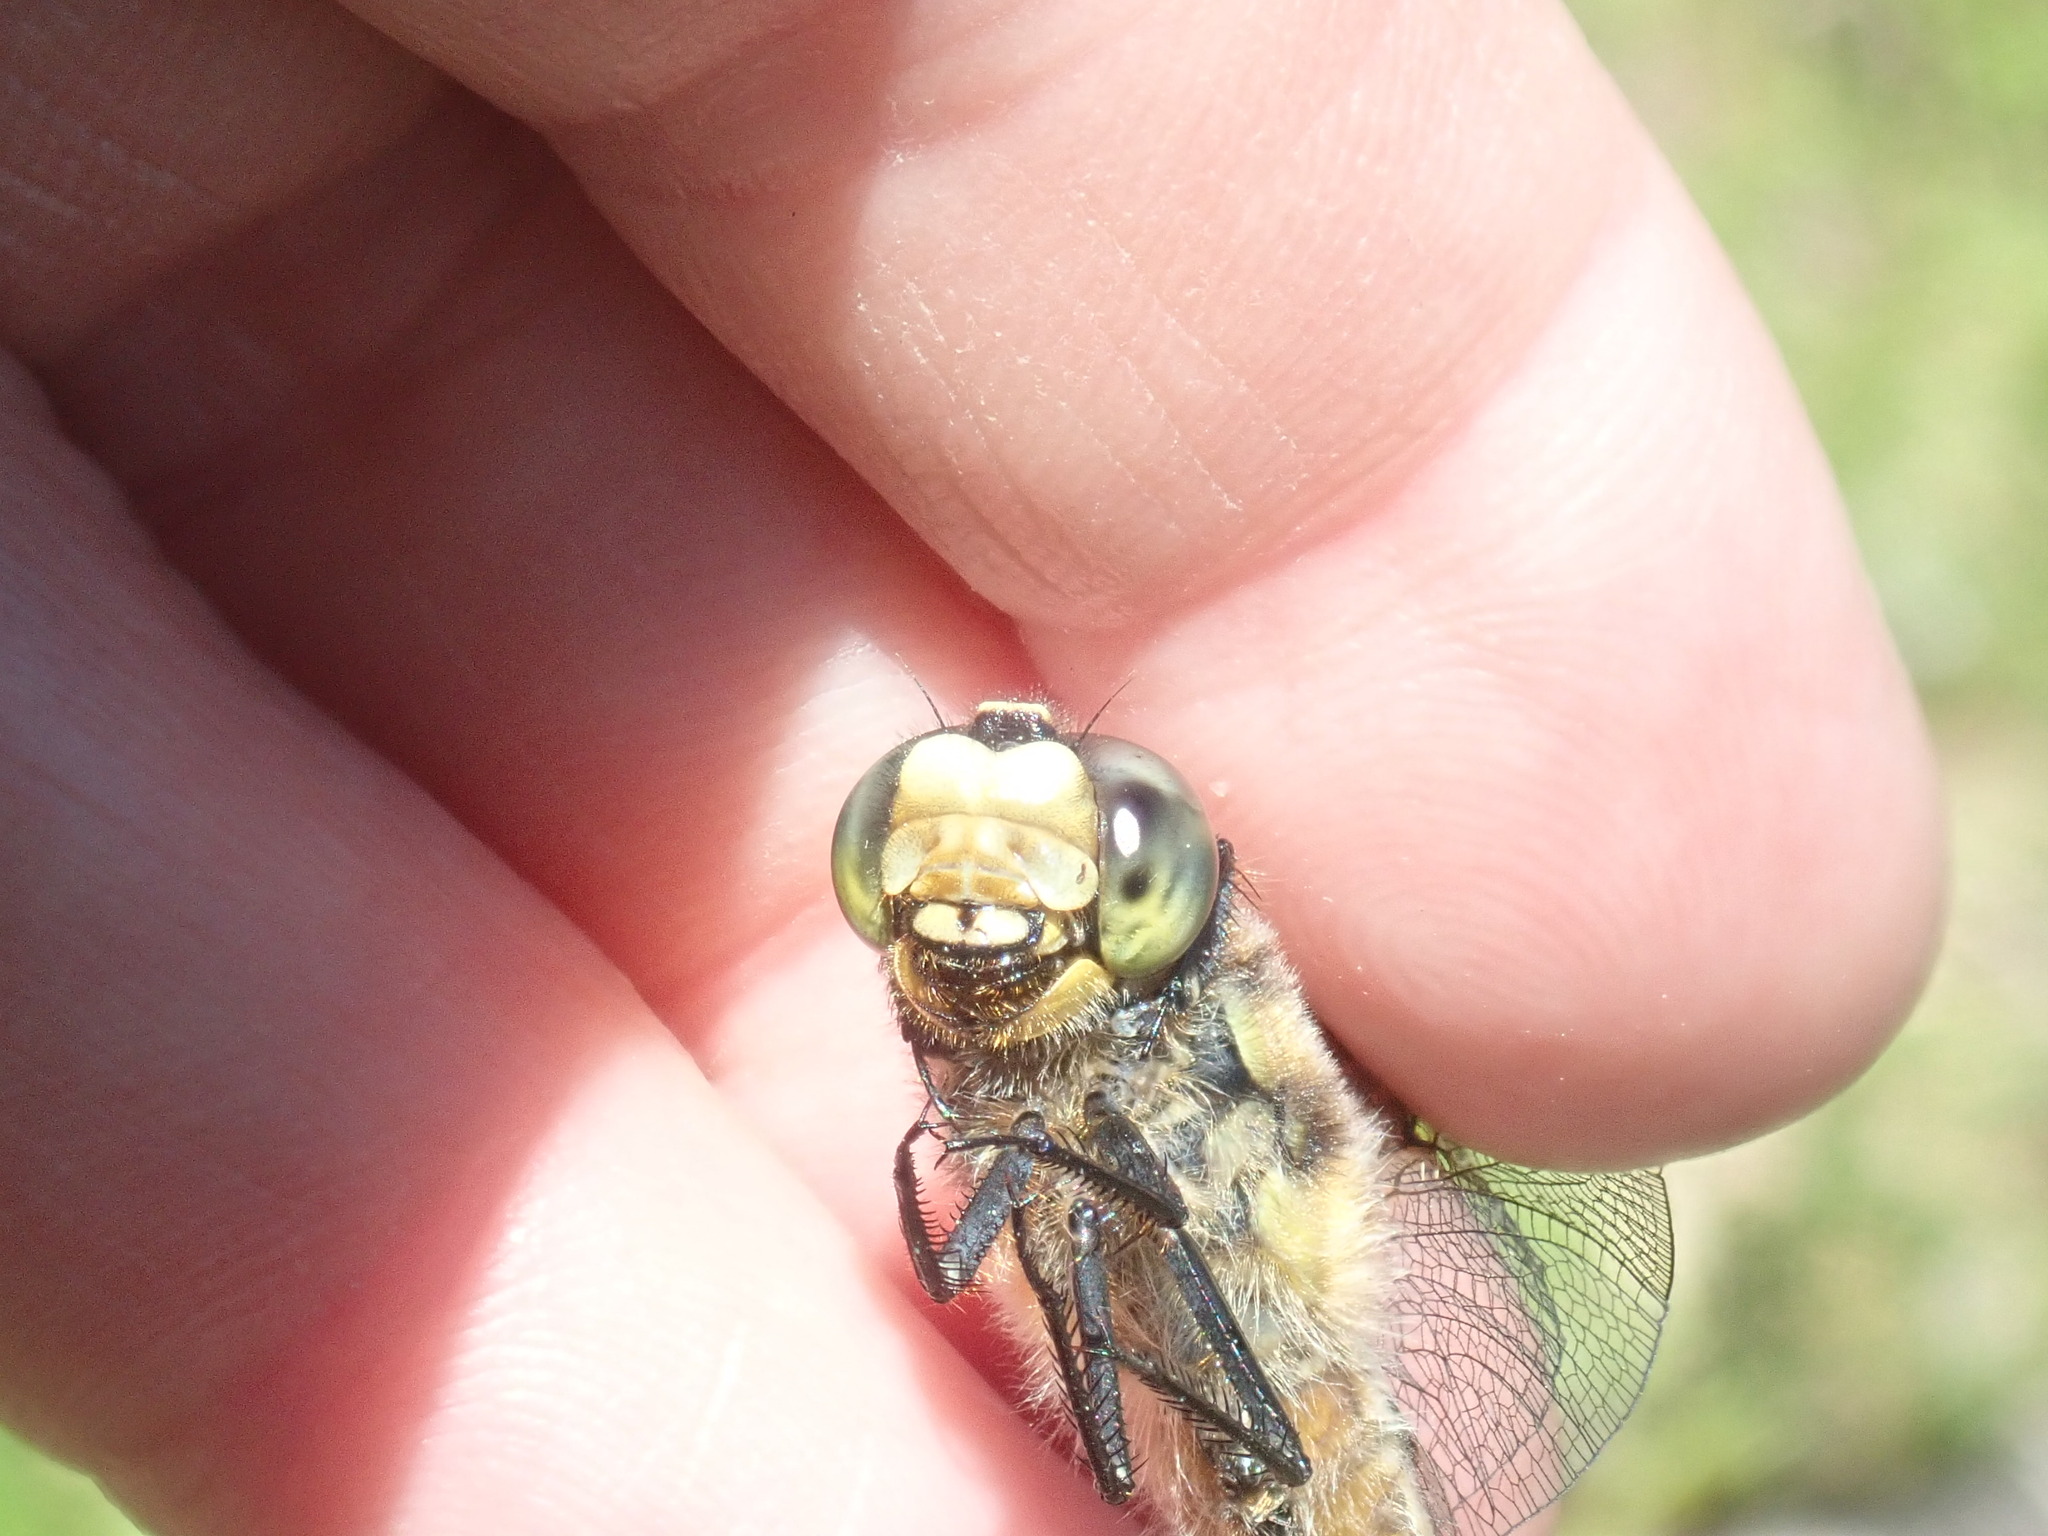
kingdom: Animalia
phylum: Arthropoda
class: Insecta
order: Odonata
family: Libellulidae
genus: Libellula
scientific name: Libellula quadrimaculata
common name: Four-spotted chaser
